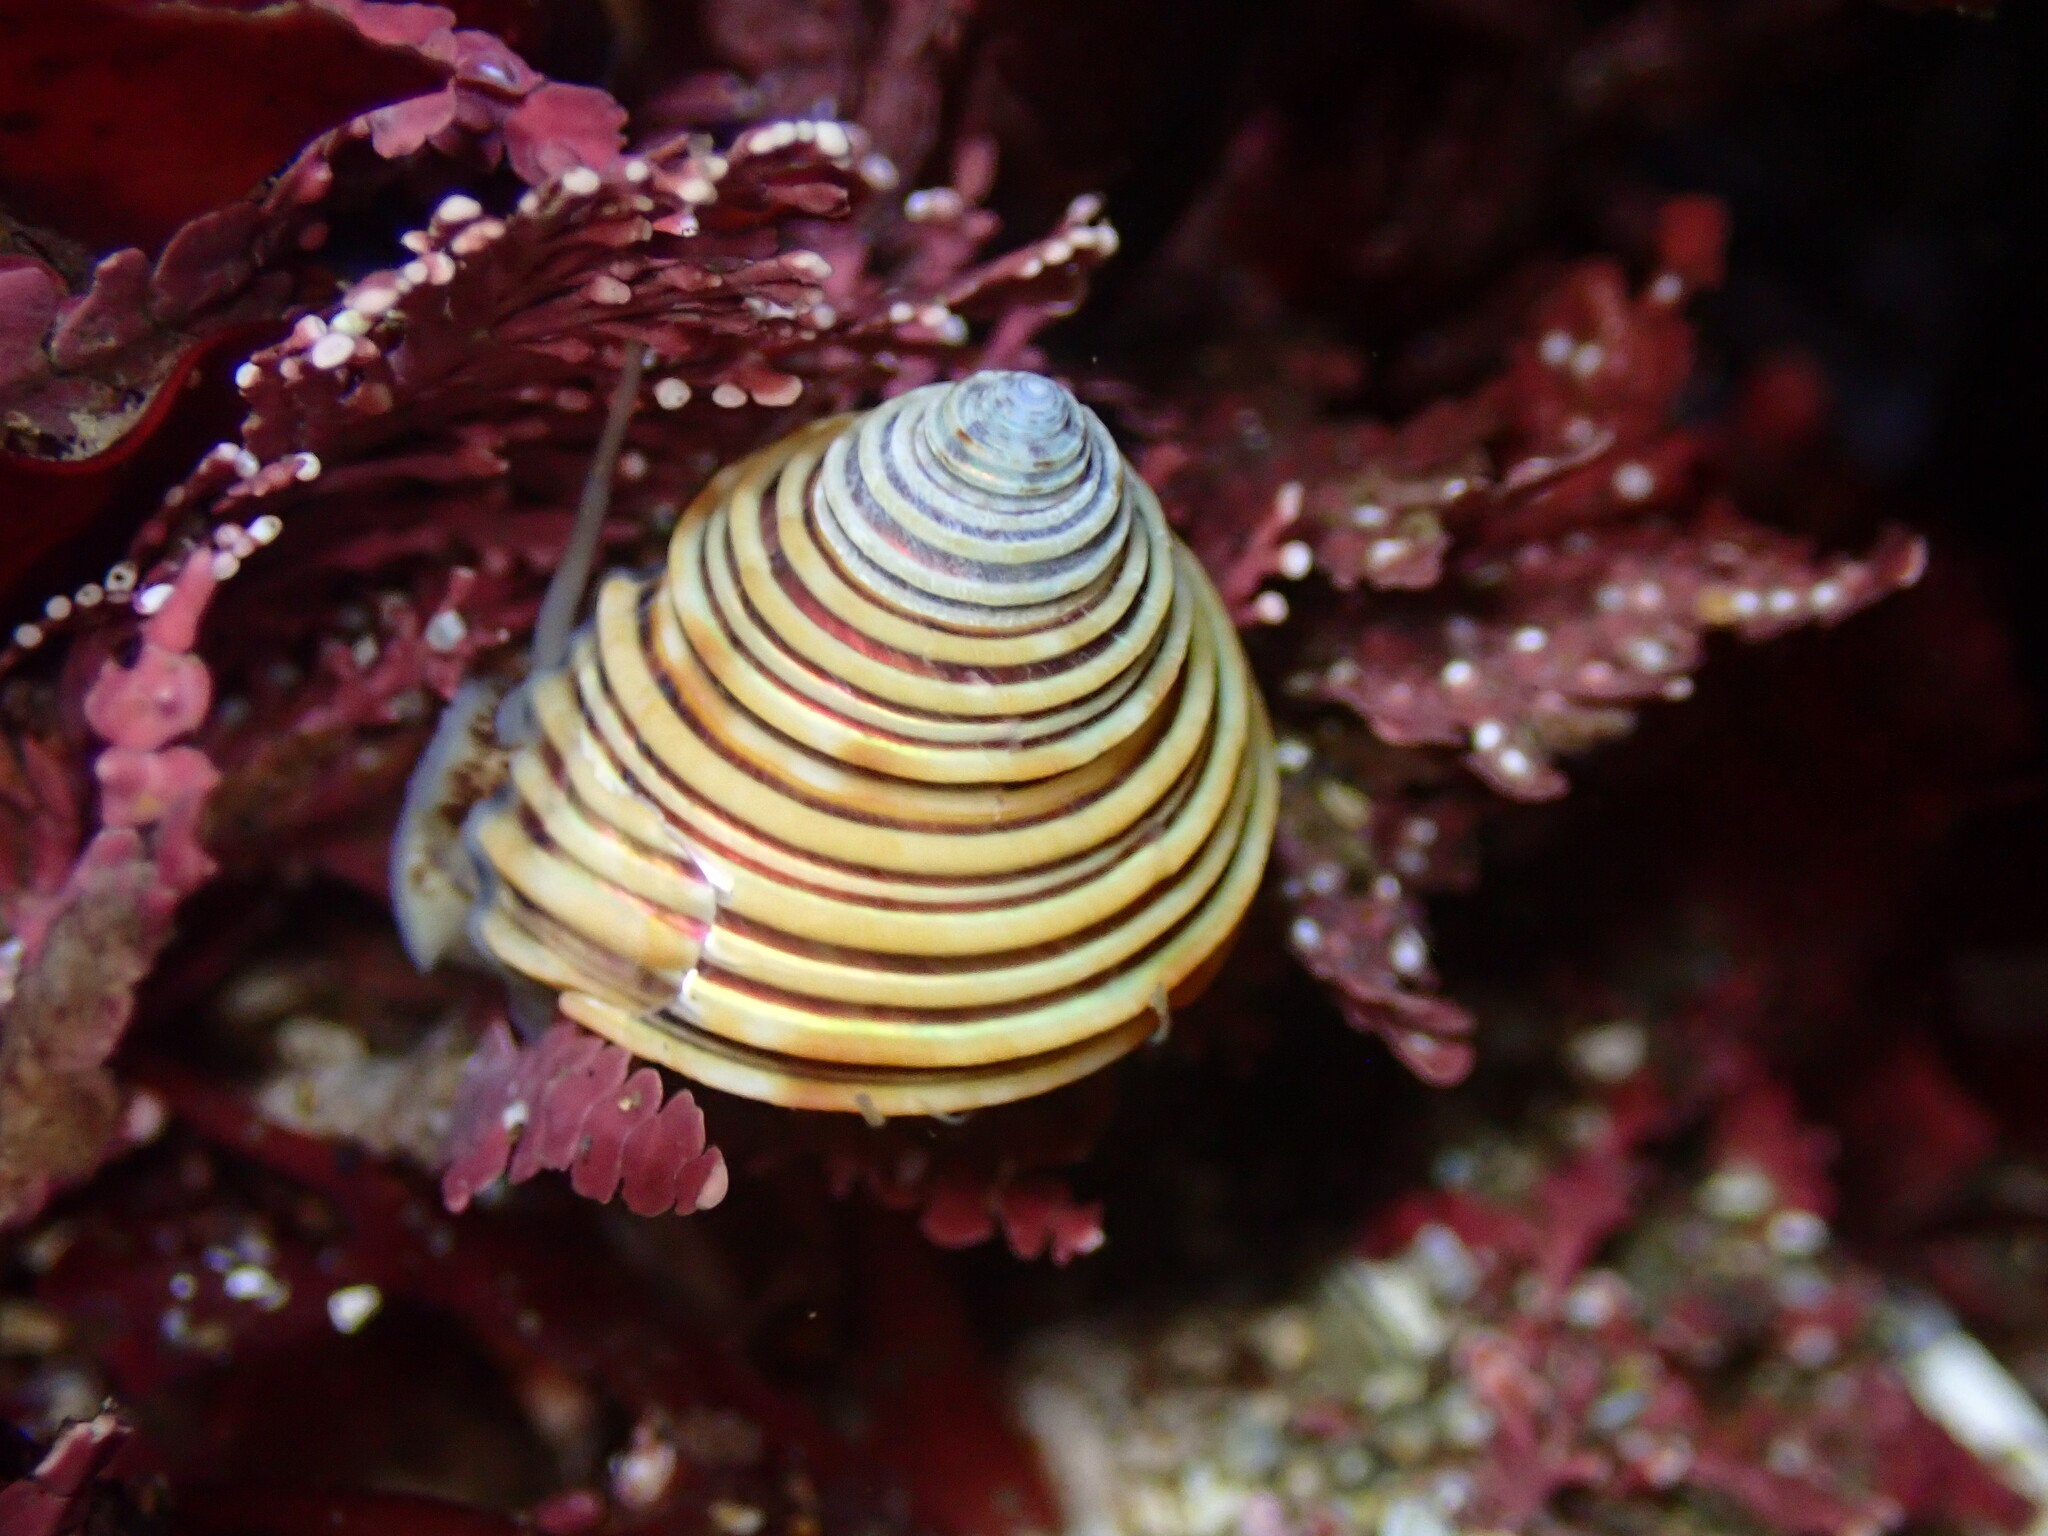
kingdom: Animalia
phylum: Mollusca
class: Gastropoda
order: Trochida
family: Calliostomatidae
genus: Calliostoma
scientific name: Calliostoma canaliculatum
